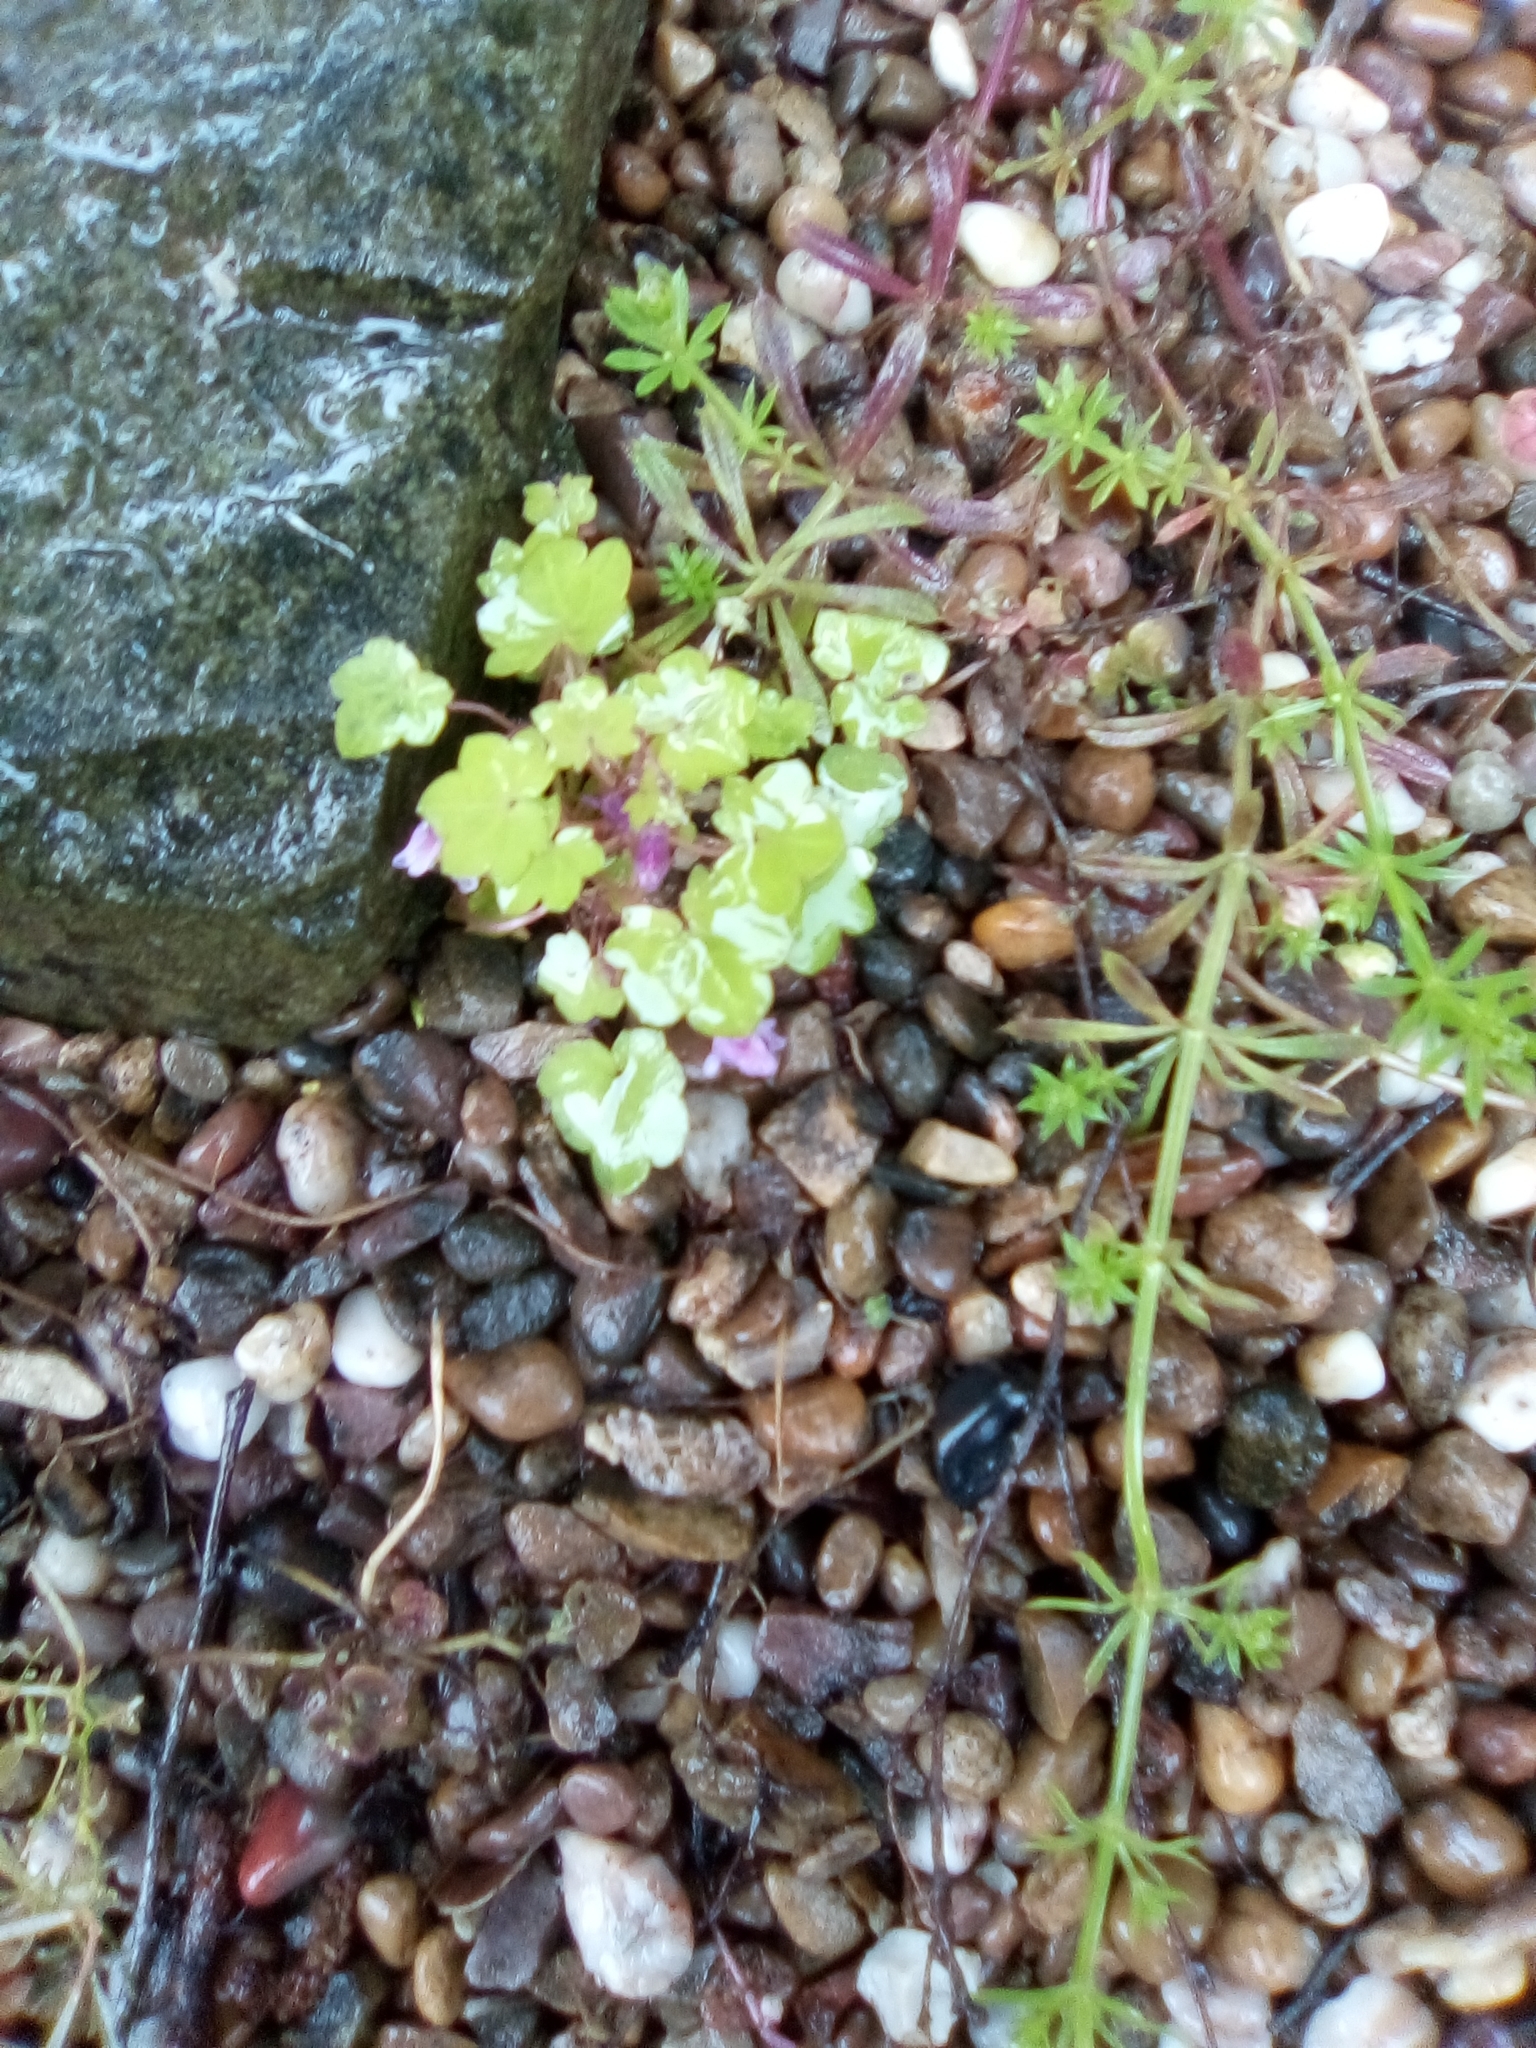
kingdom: Plantae
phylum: Tracheophyta
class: Magnoliopsida
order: Lamiales
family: Plantaginaceae
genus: Cymbalaria
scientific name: Cymbalaria muralis
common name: Ivy-leaved toadflax
